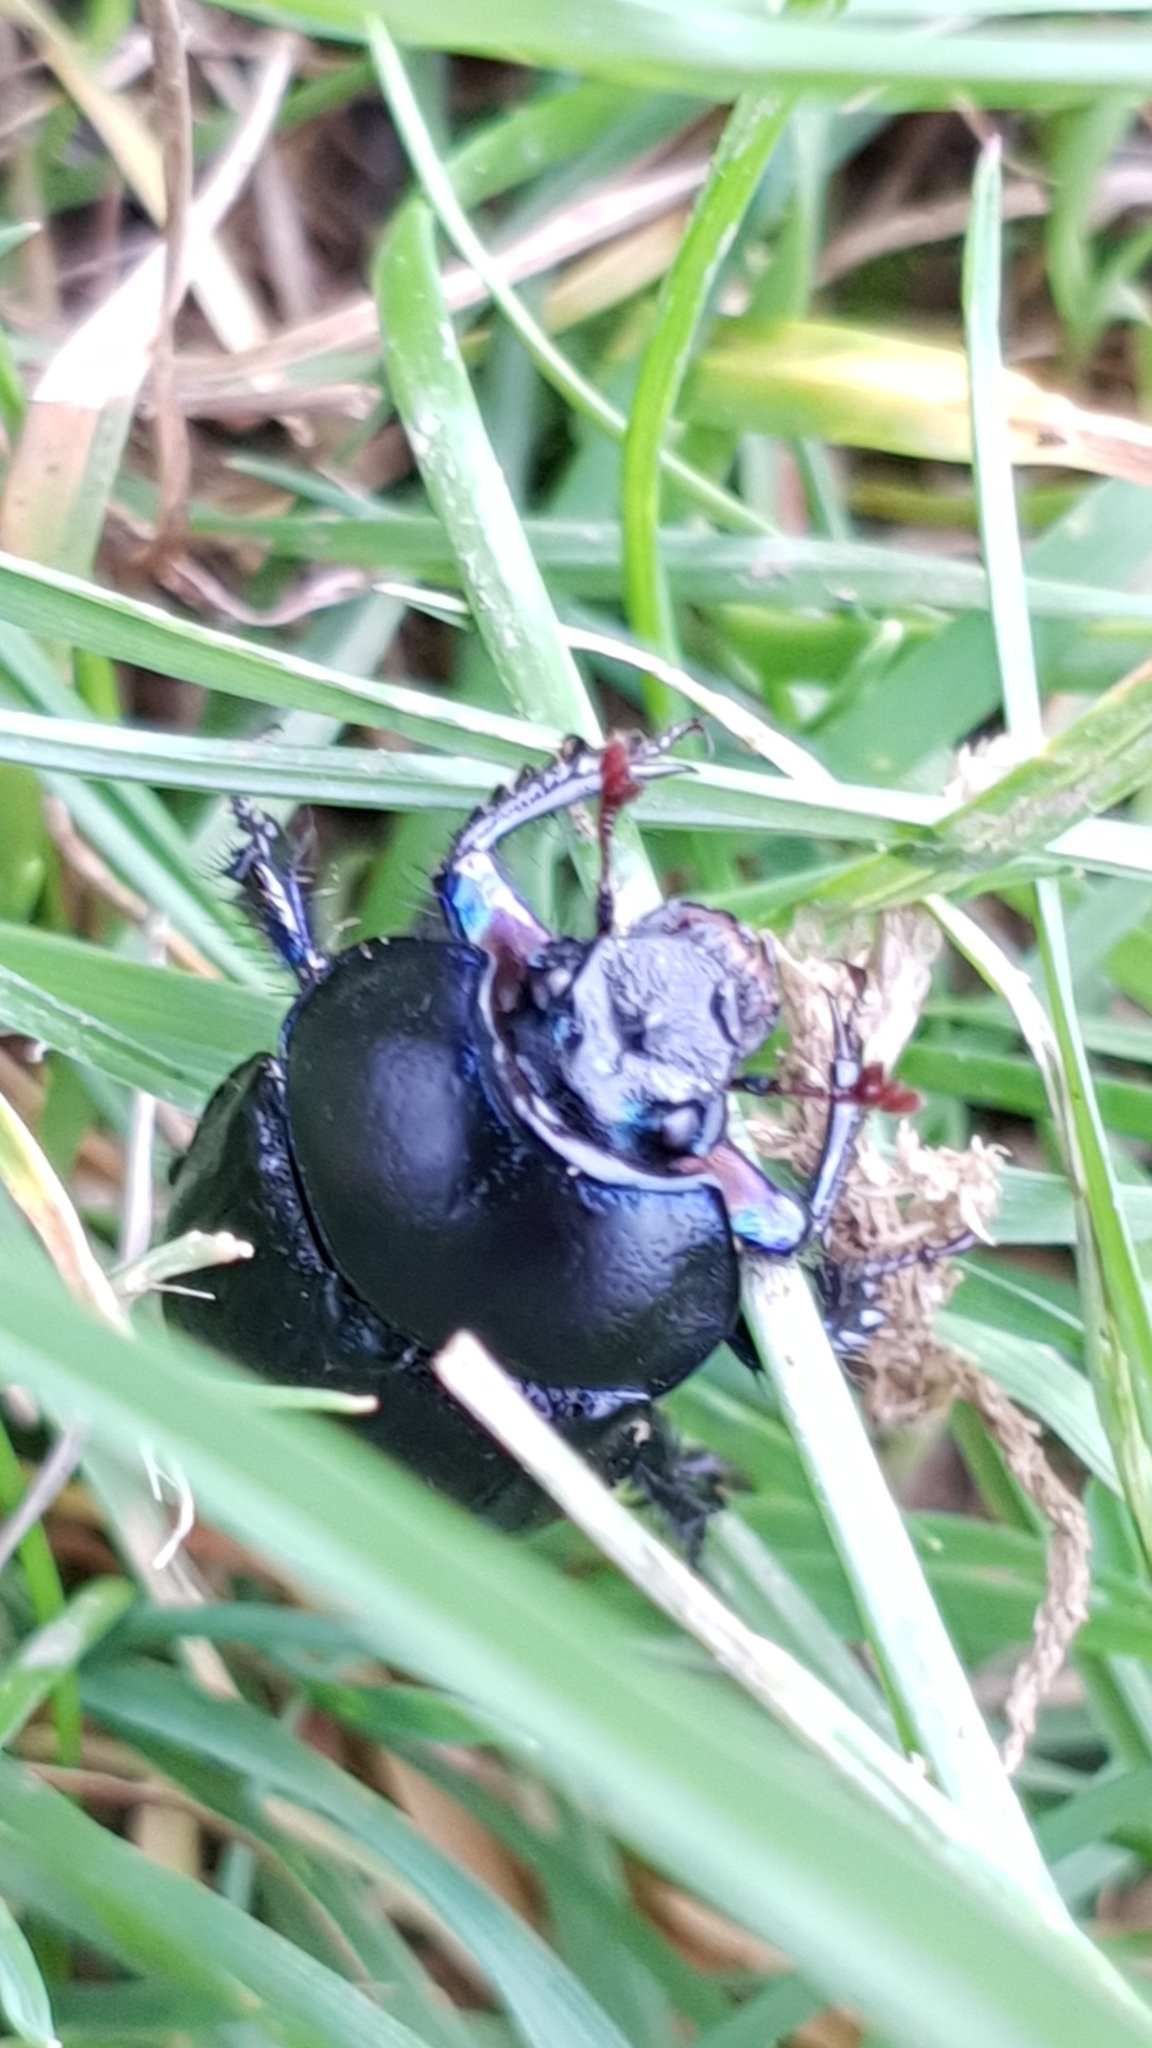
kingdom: Animalia
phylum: Arthropoda
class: Insecta
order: Coleoptera
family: Geotrupidae
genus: Anoplotrupes
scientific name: Anoplotrupes stercorosus
